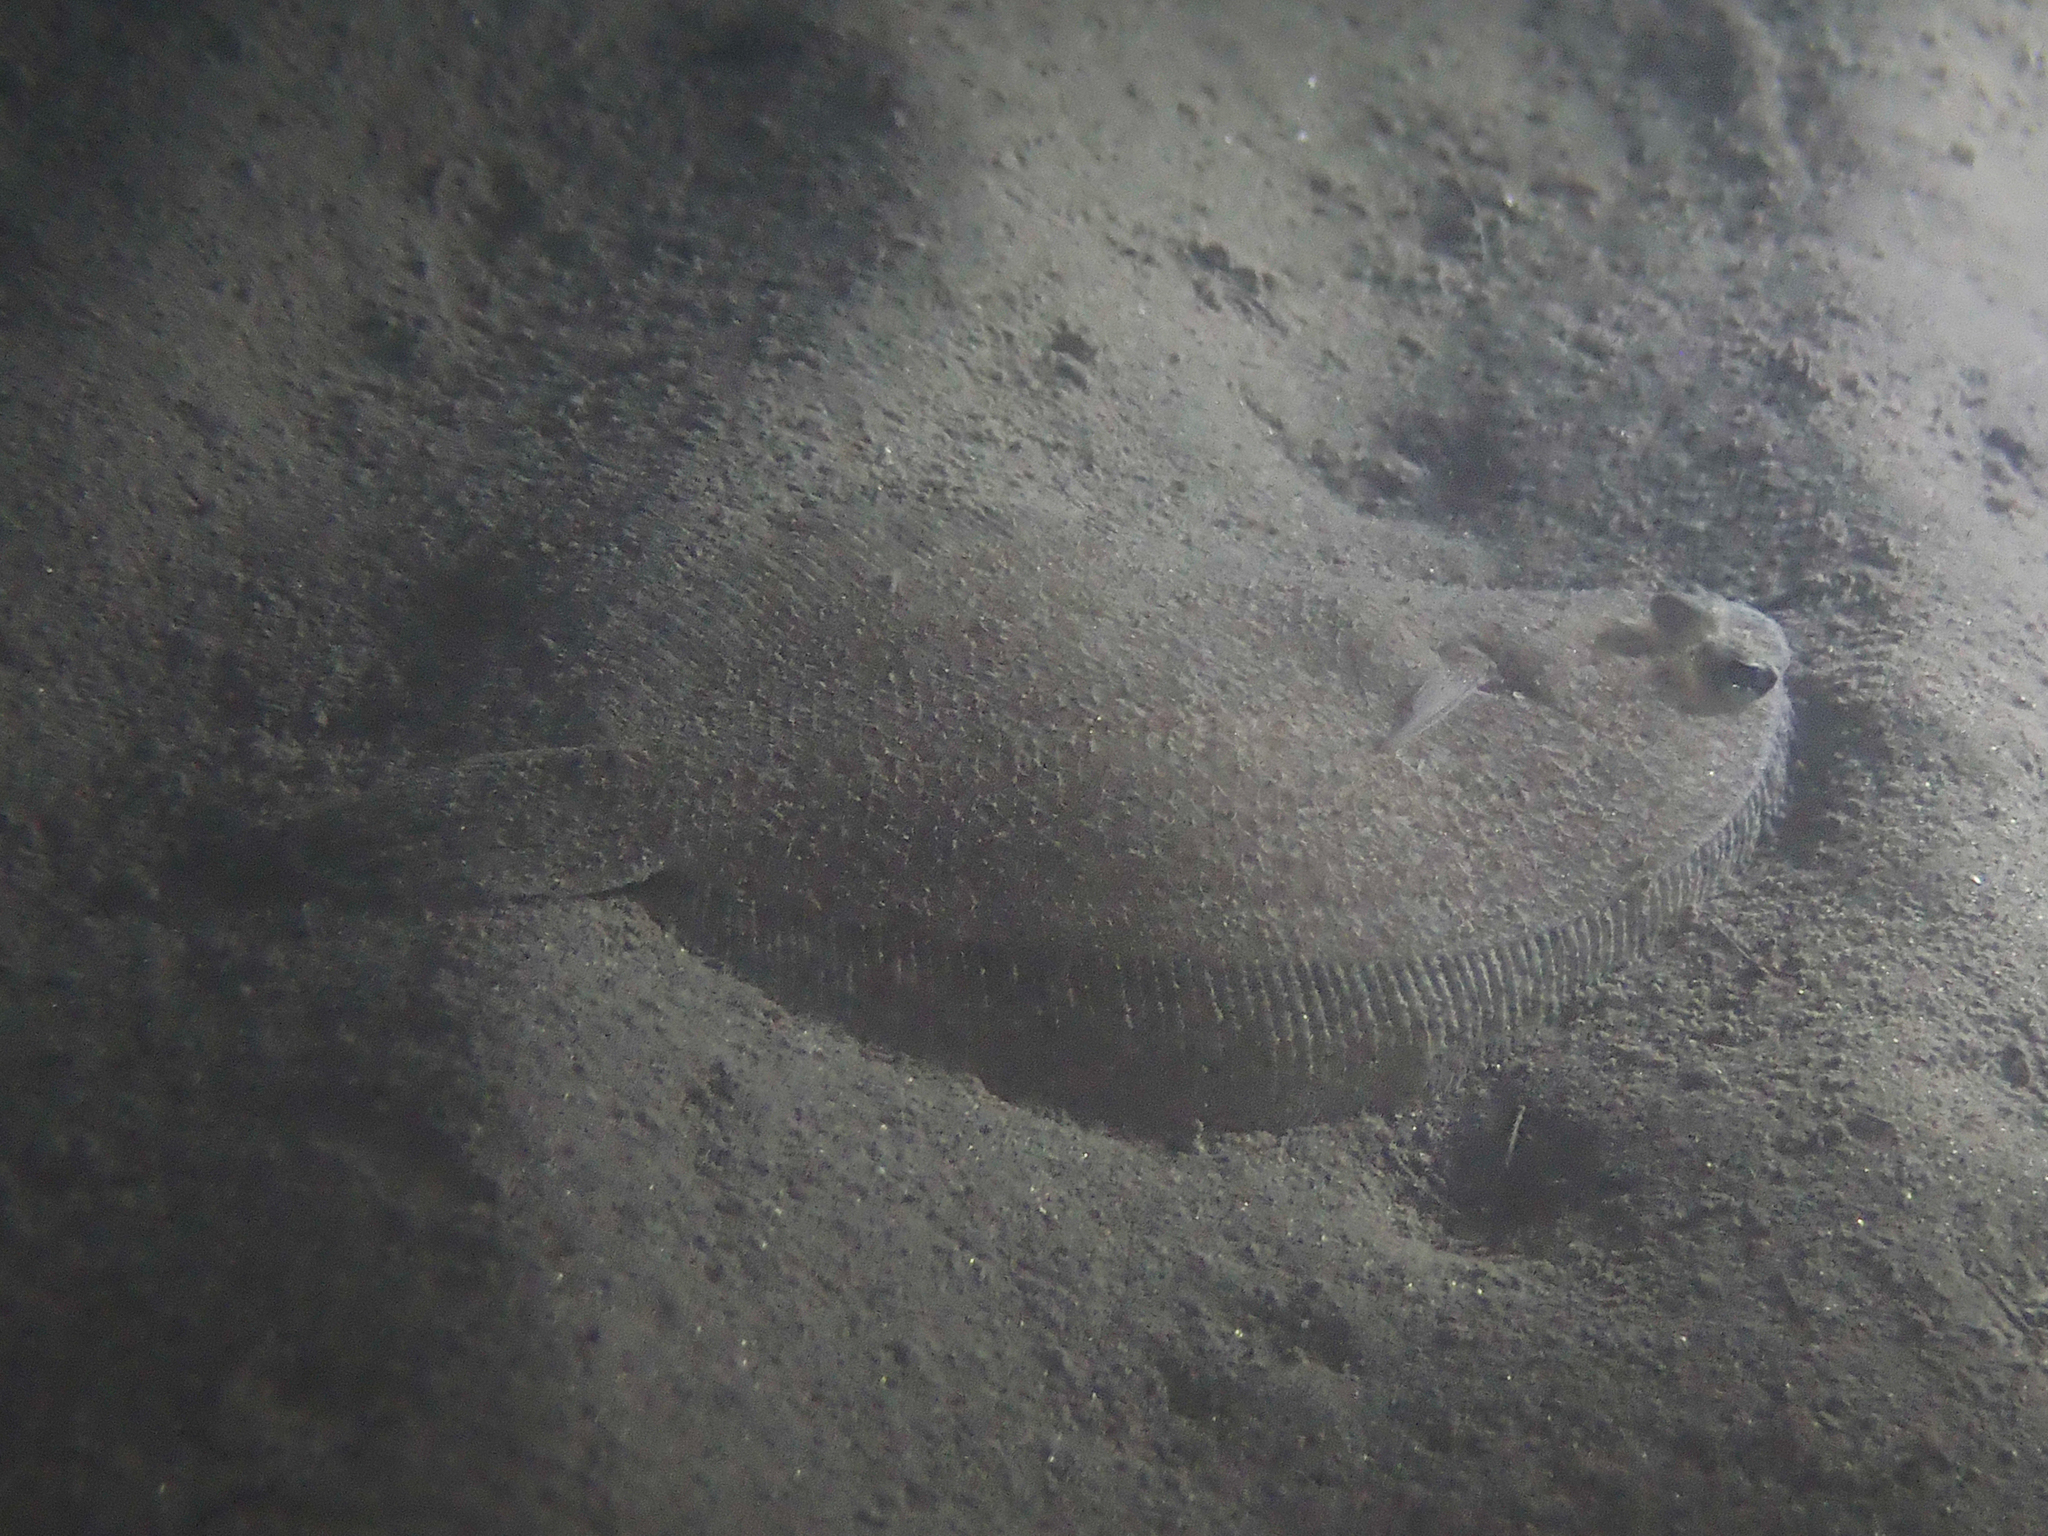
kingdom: Animalia
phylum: Chordata
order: Pleuronectiformes
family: Bothidae
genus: Arnoglossus
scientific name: Arnoglossus laterna
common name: Scaldfish
